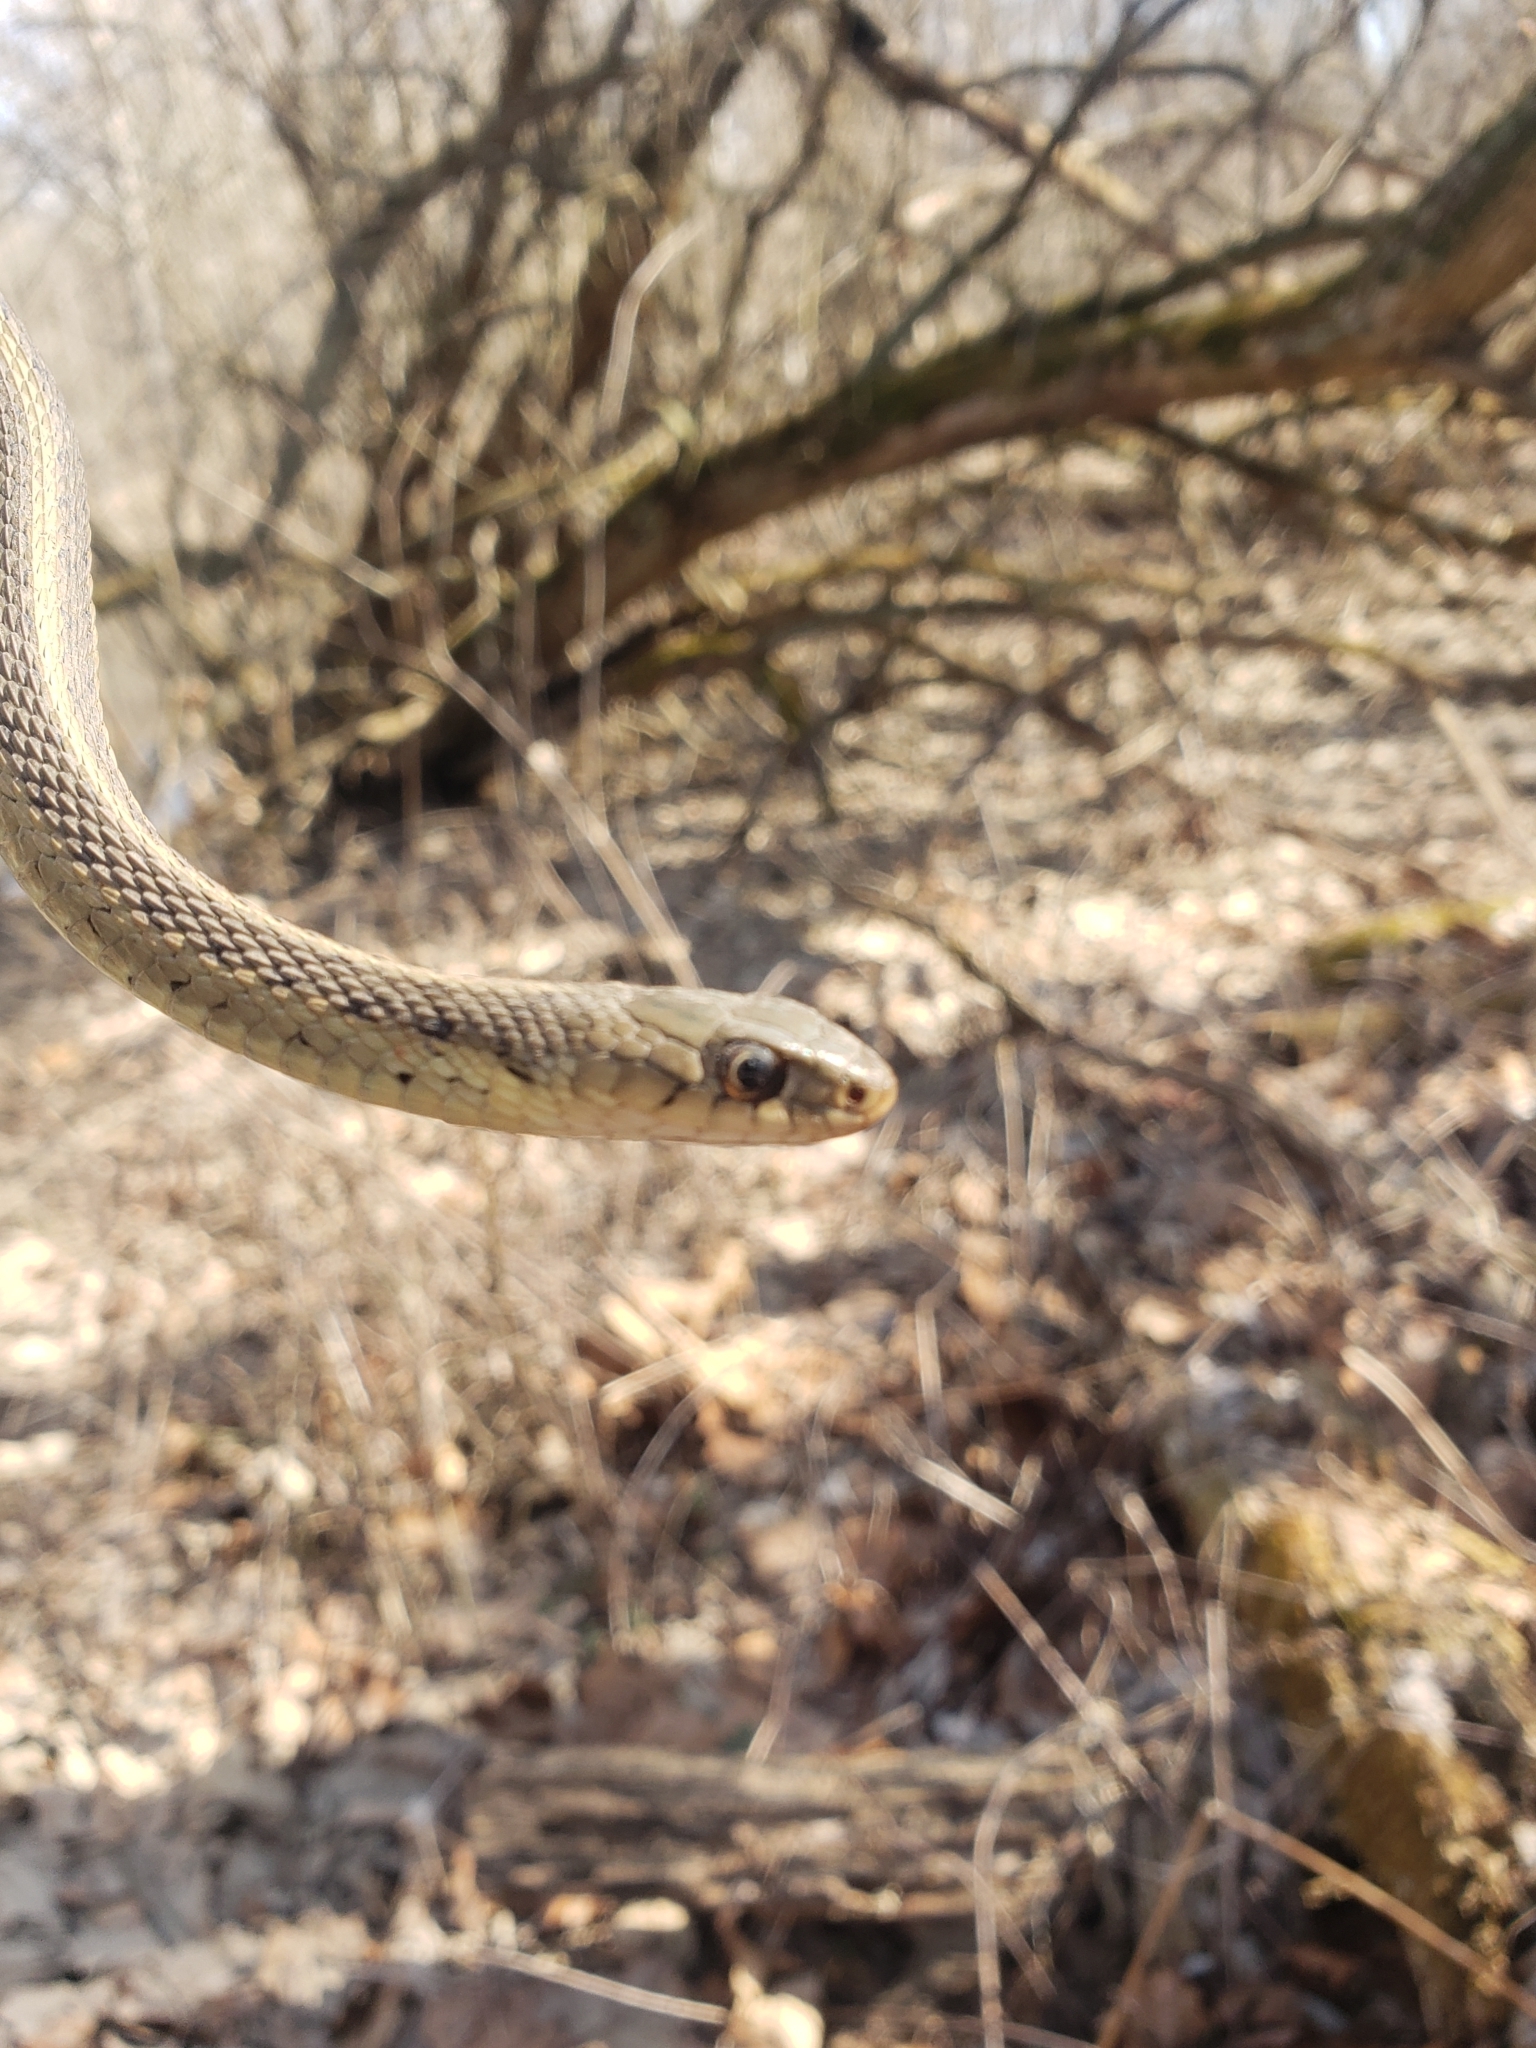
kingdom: Animalia
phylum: Chordata
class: Squamata
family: Colubridae
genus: Thamnophis
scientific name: Thamnophis sirtalis
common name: Common garter snake
